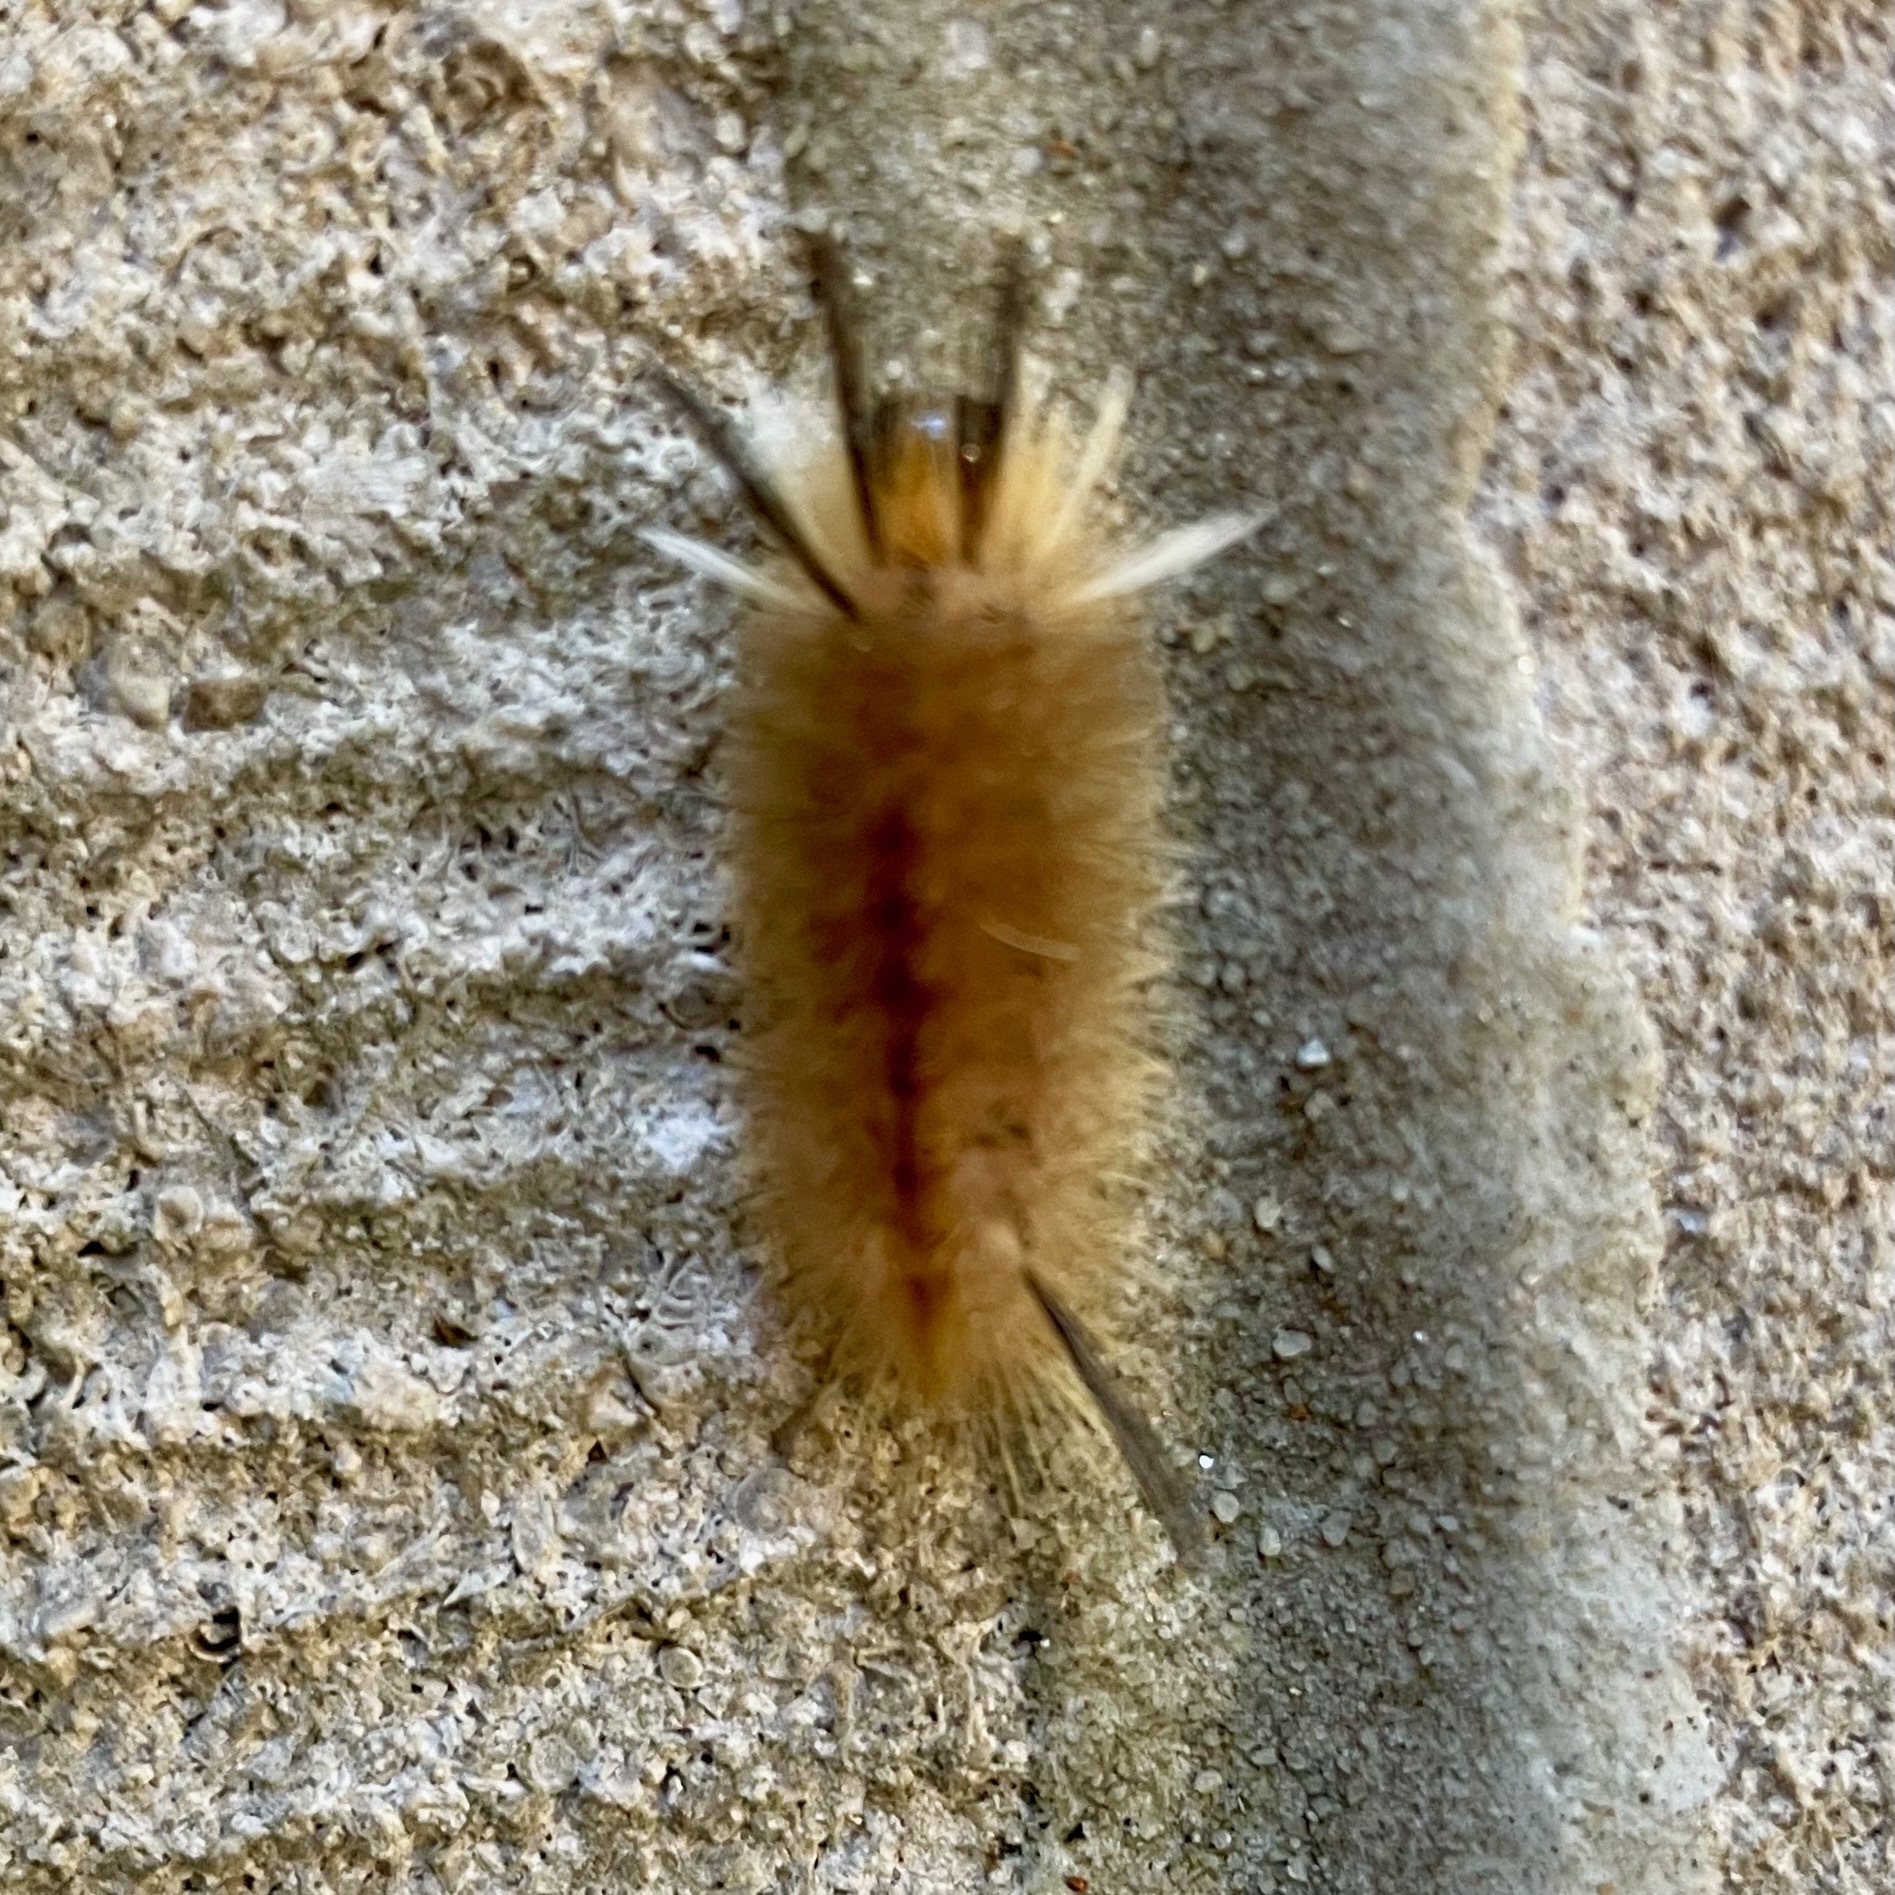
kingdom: Animalia
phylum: Arthropoda
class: Insecta
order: Lepidoptera
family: Erebidae
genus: Halysidota
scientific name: Halysidota tessellaris
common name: Banded tussock moth
